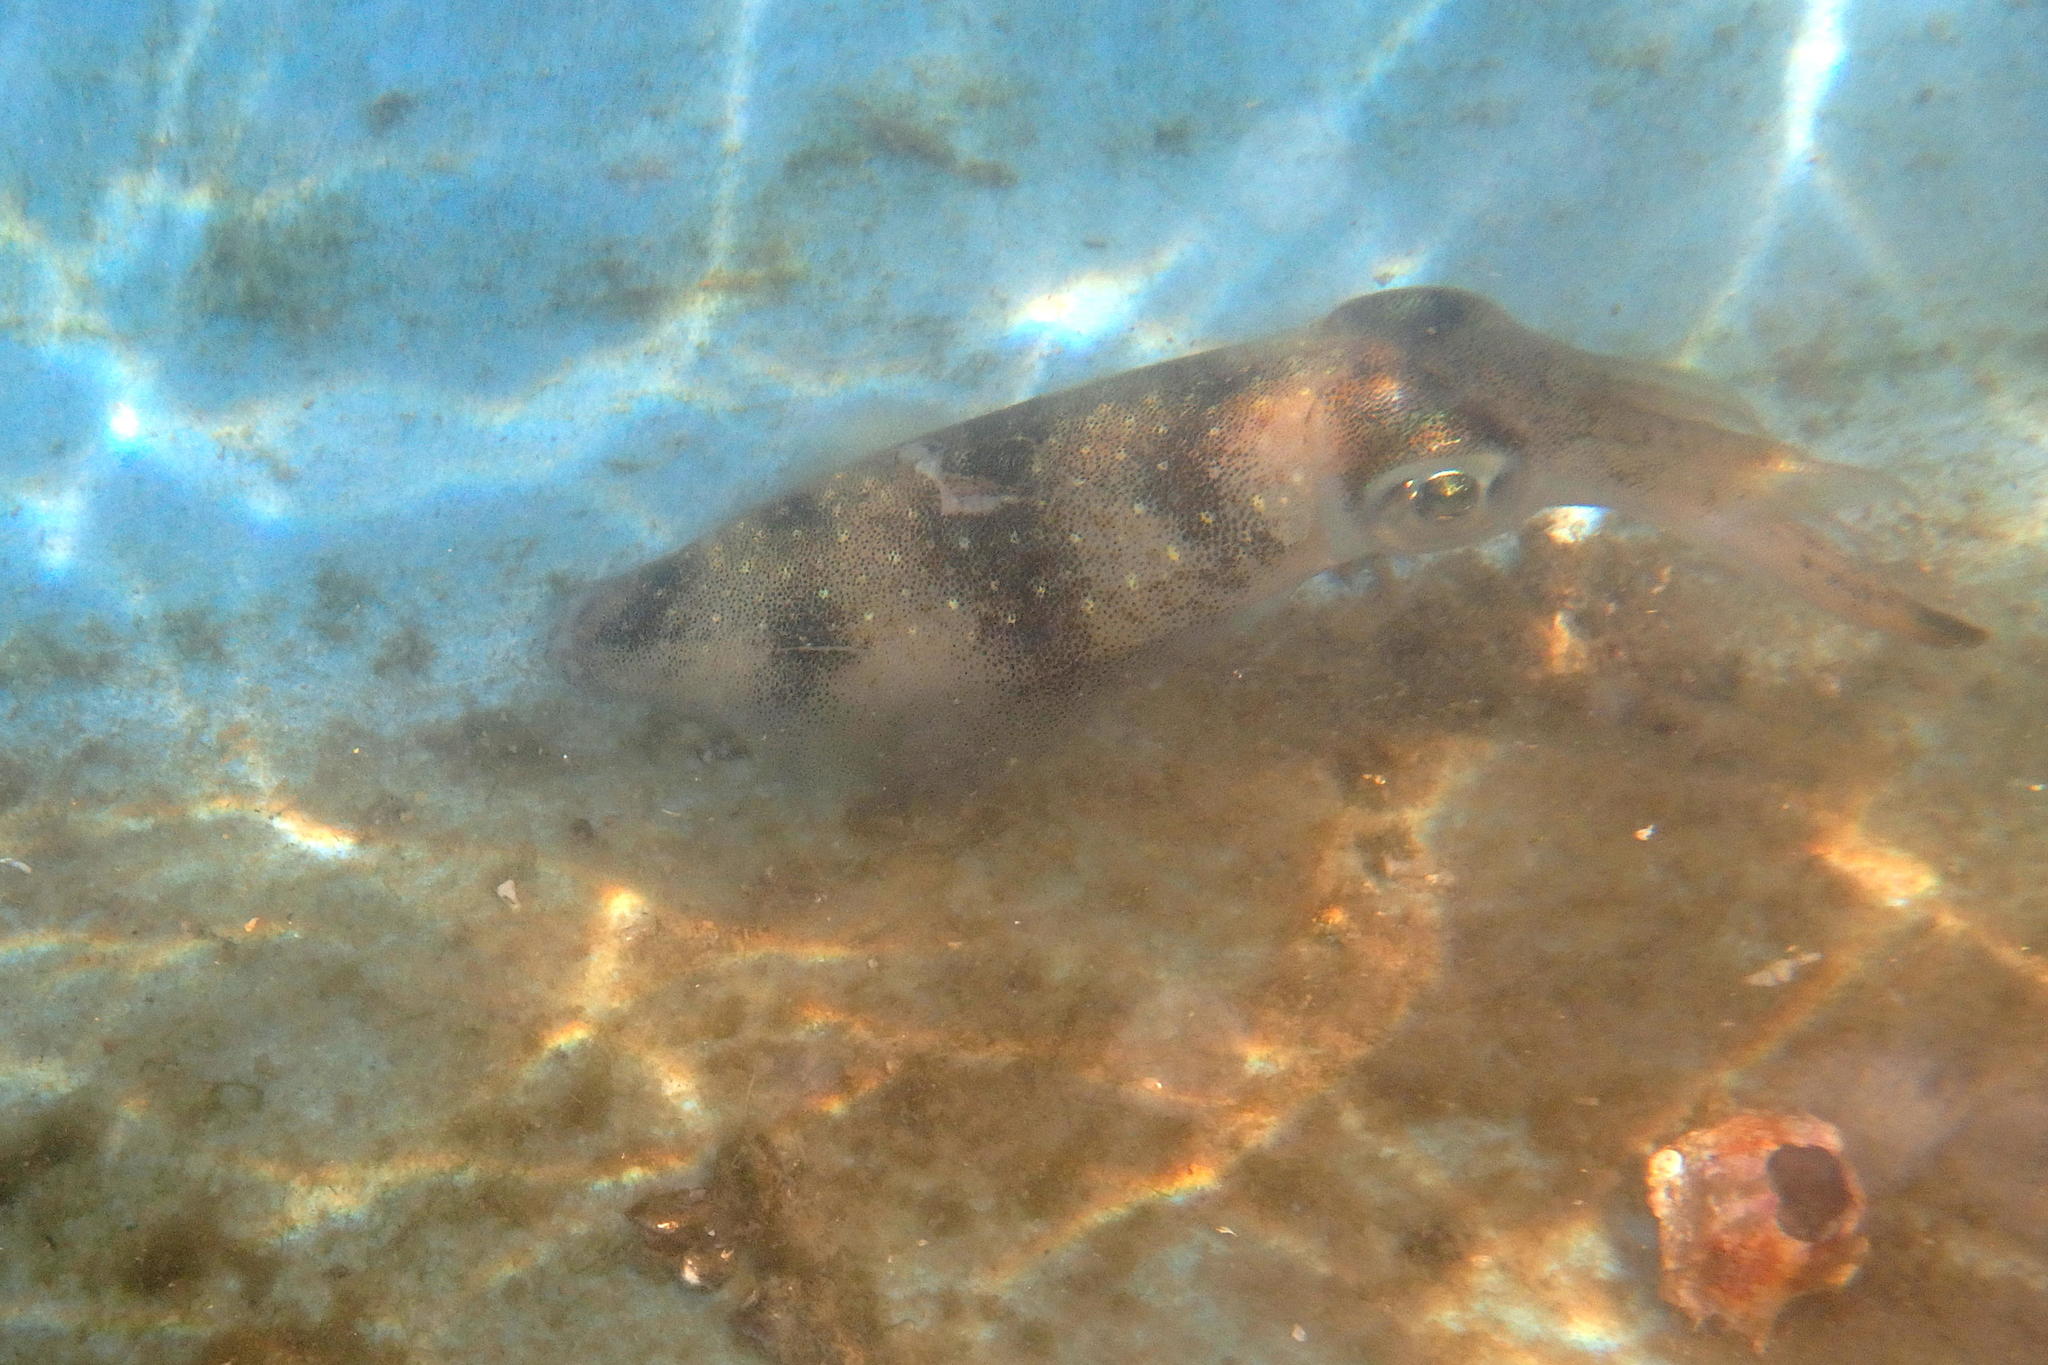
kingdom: Animalia
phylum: Mollusca
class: Cephalopoda
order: Myopsida
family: Loliginidae
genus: Sepioteuthis
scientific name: Sepioteuthis lessoniana
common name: Bigfin reef squid
